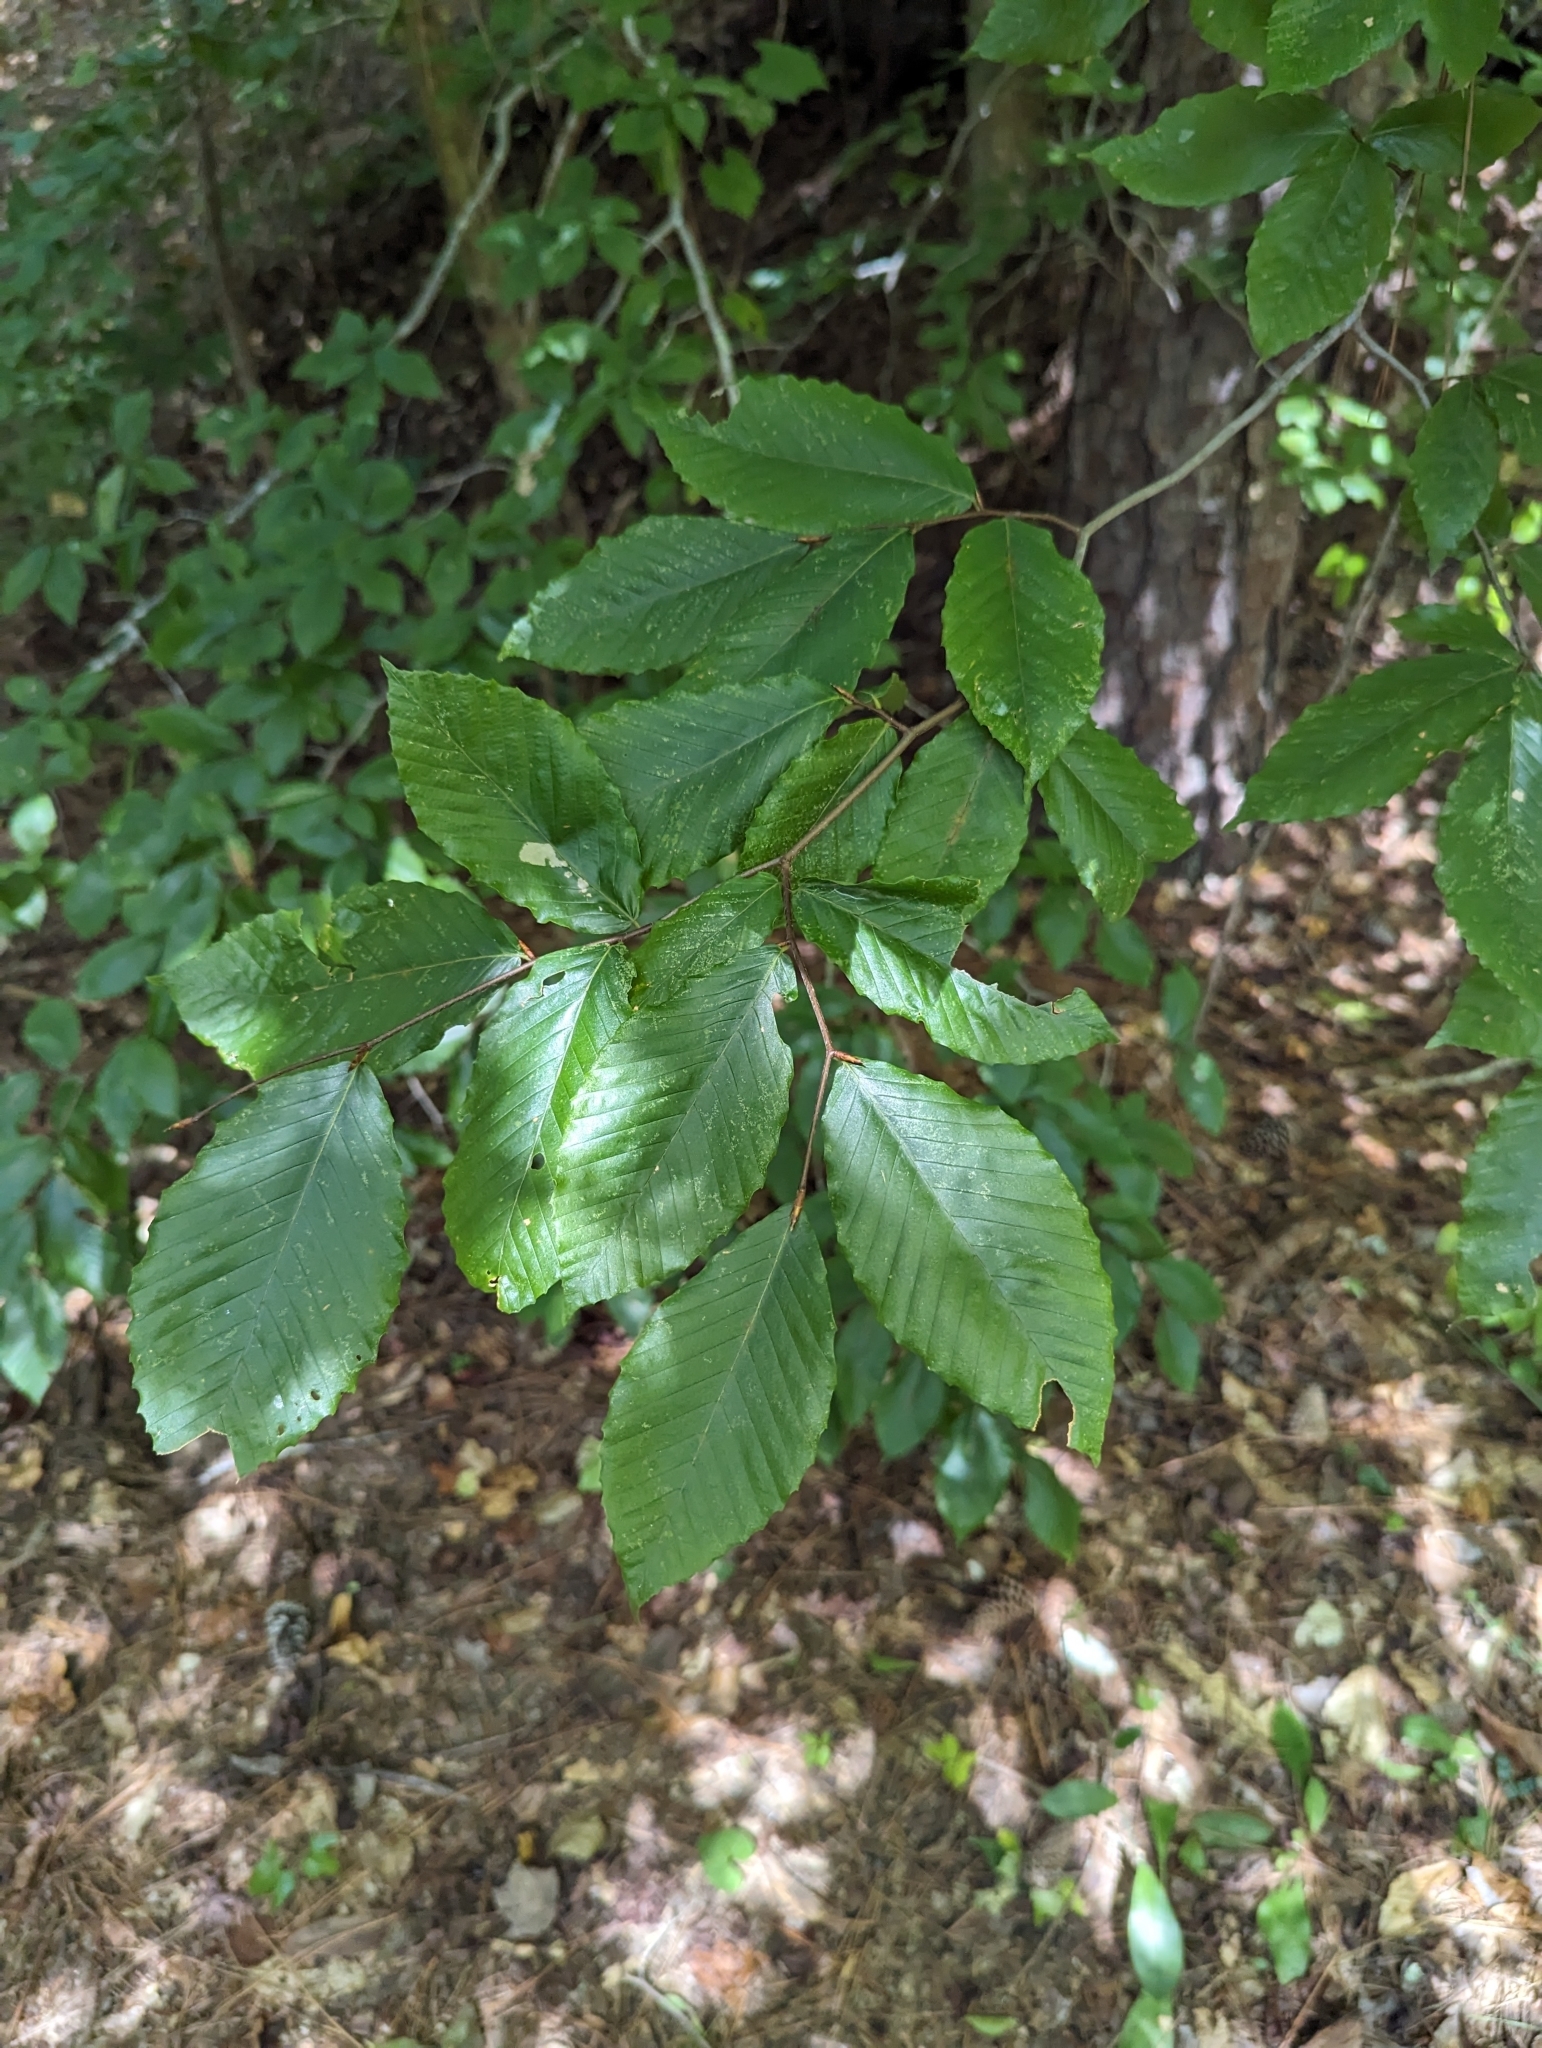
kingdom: Plantae
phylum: Tracheophyta
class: Magnoliopsida
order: Fagales
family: Fagaceae
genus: Fagus
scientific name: Fagus grandifolia
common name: American beech
